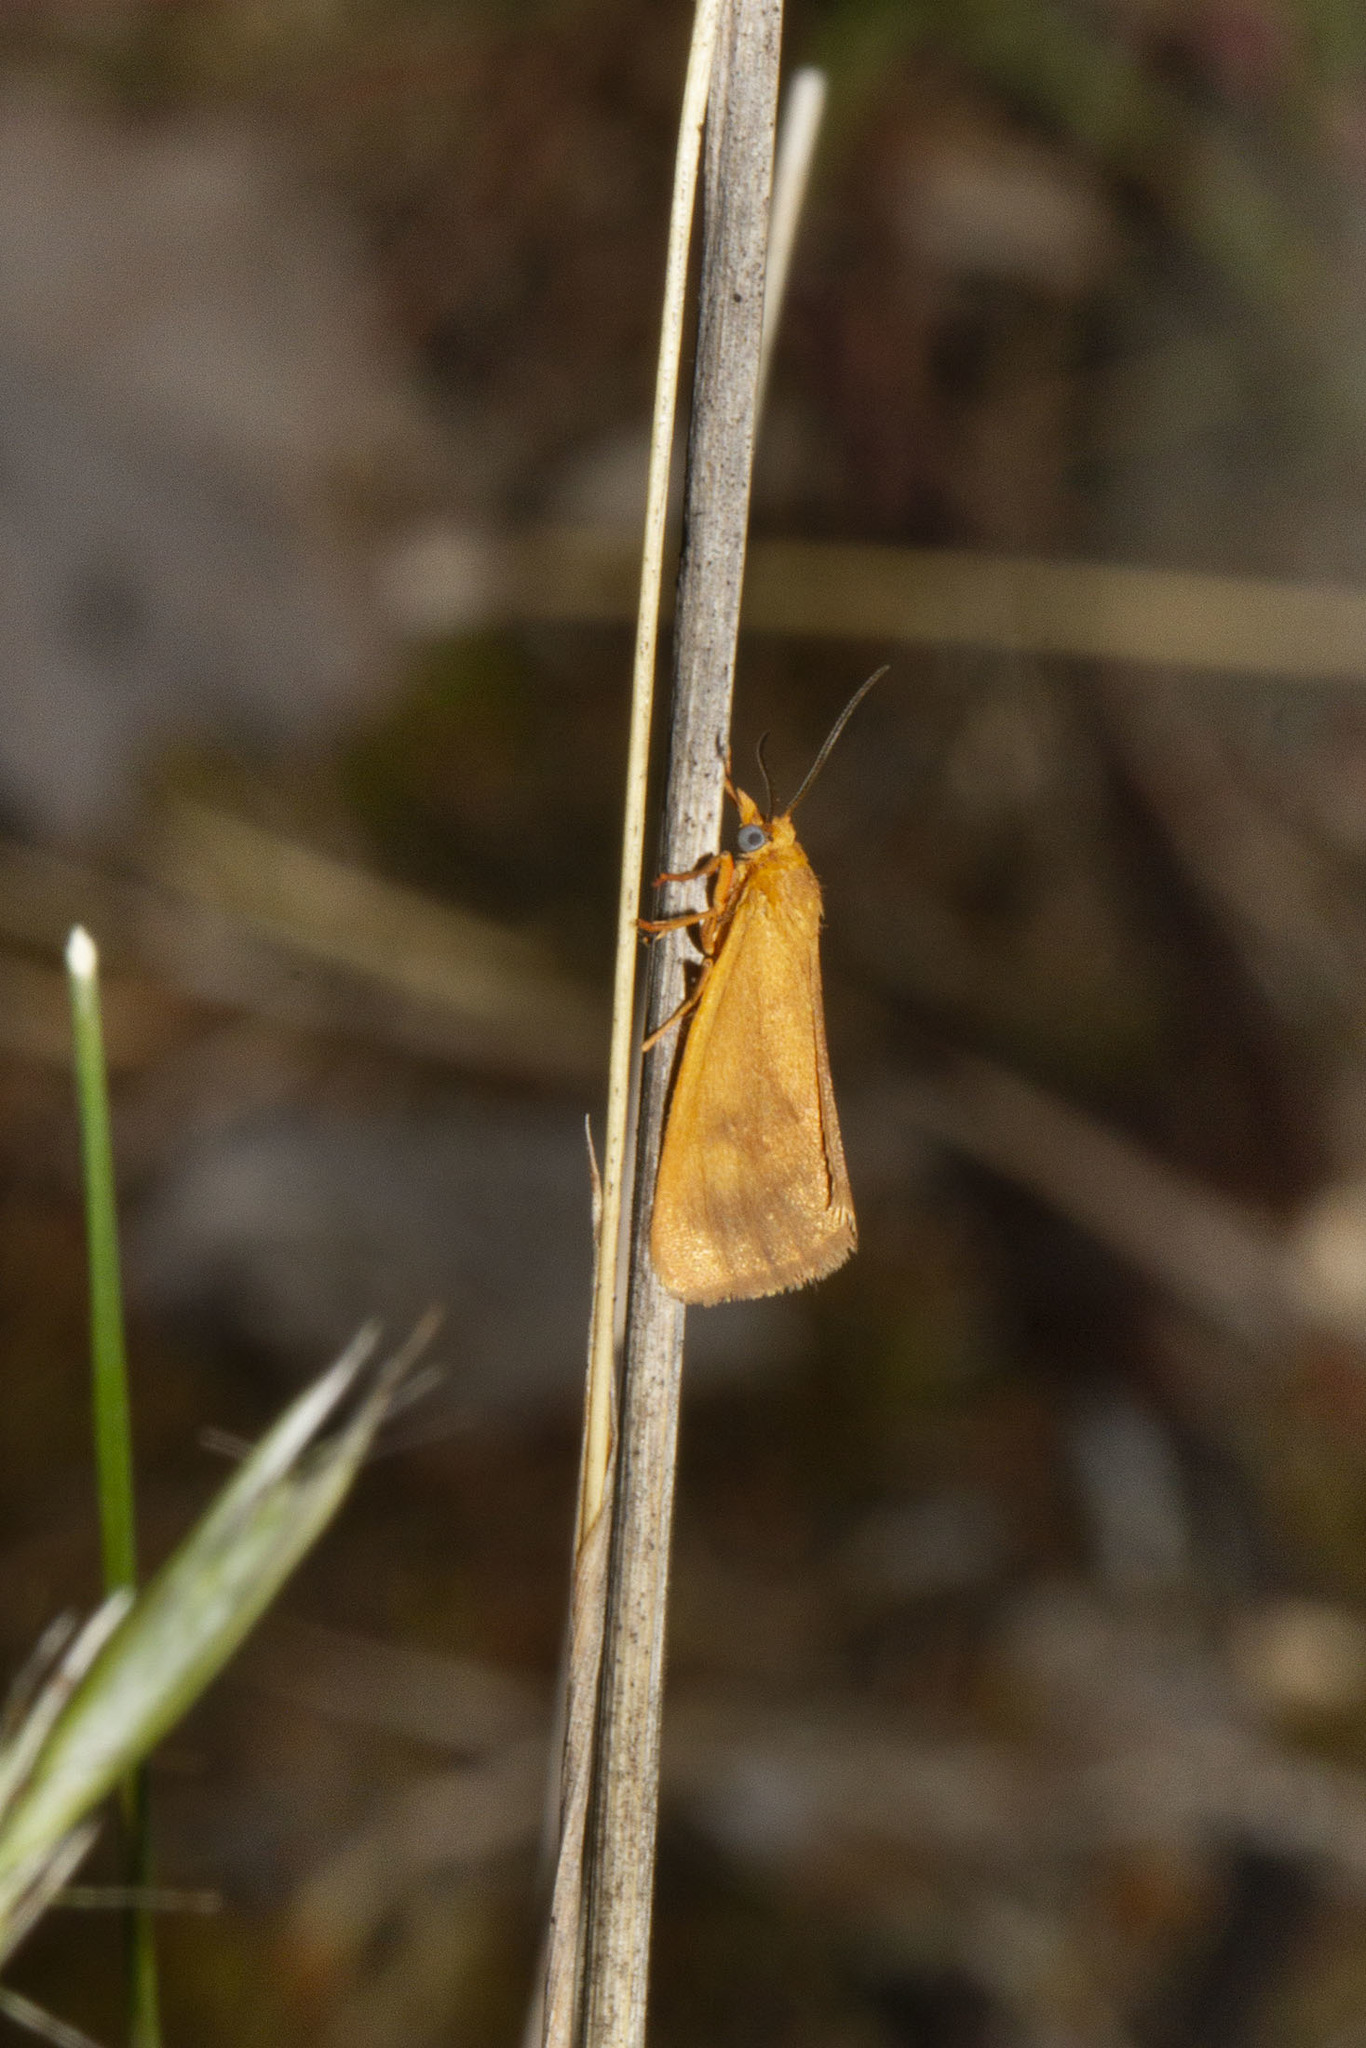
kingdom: Animalia
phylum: Arthropoda
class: Insecta
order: Lepidoptera
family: Erebidae
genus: Virbia
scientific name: Virbia aurantiaca
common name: Orange virbia moth
